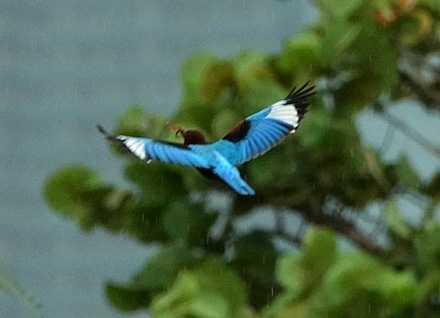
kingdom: Animalia
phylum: Chordata
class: Aves
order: Coraciiformes
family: Alcedinidae
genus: Halcyon
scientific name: Halcyon smyrnensis
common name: White-throated kingfisher
